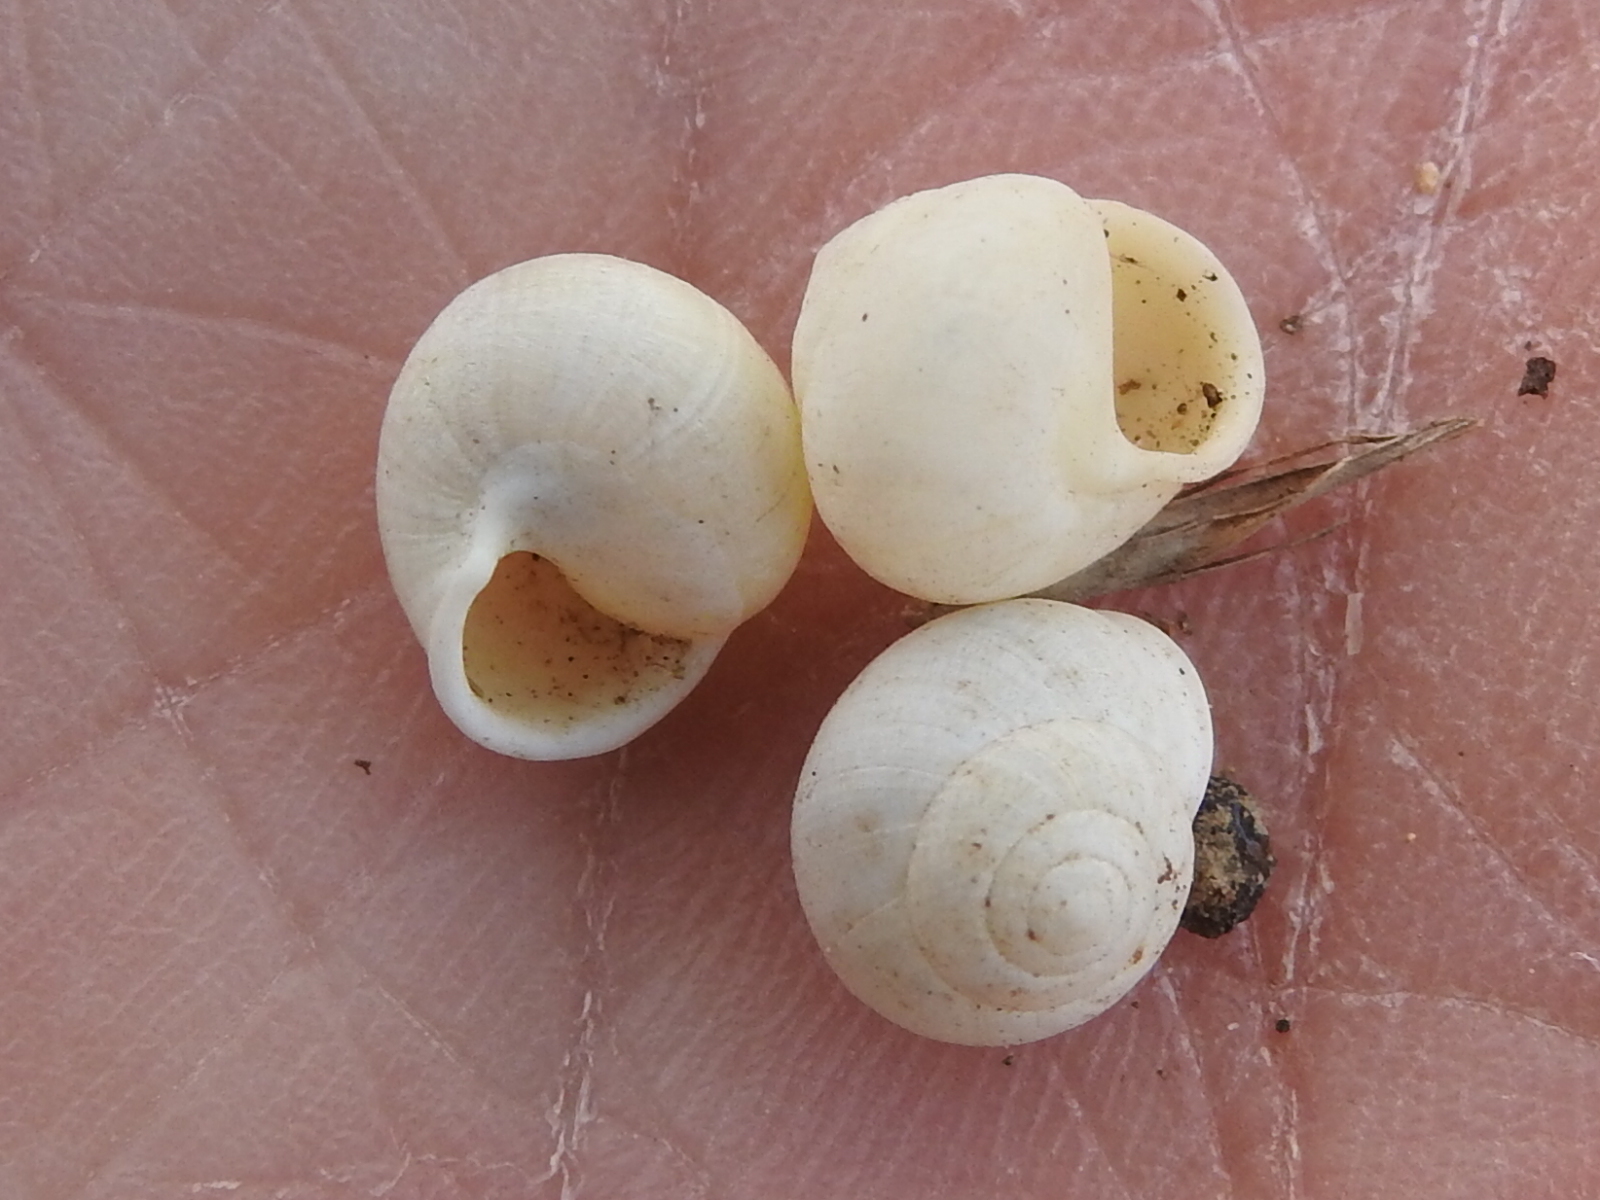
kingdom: Animalia
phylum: Mollusca
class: Gastropoda
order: Cycloneritida
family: Helicinidae
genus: Helicina
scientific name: Helicina orbiculata
